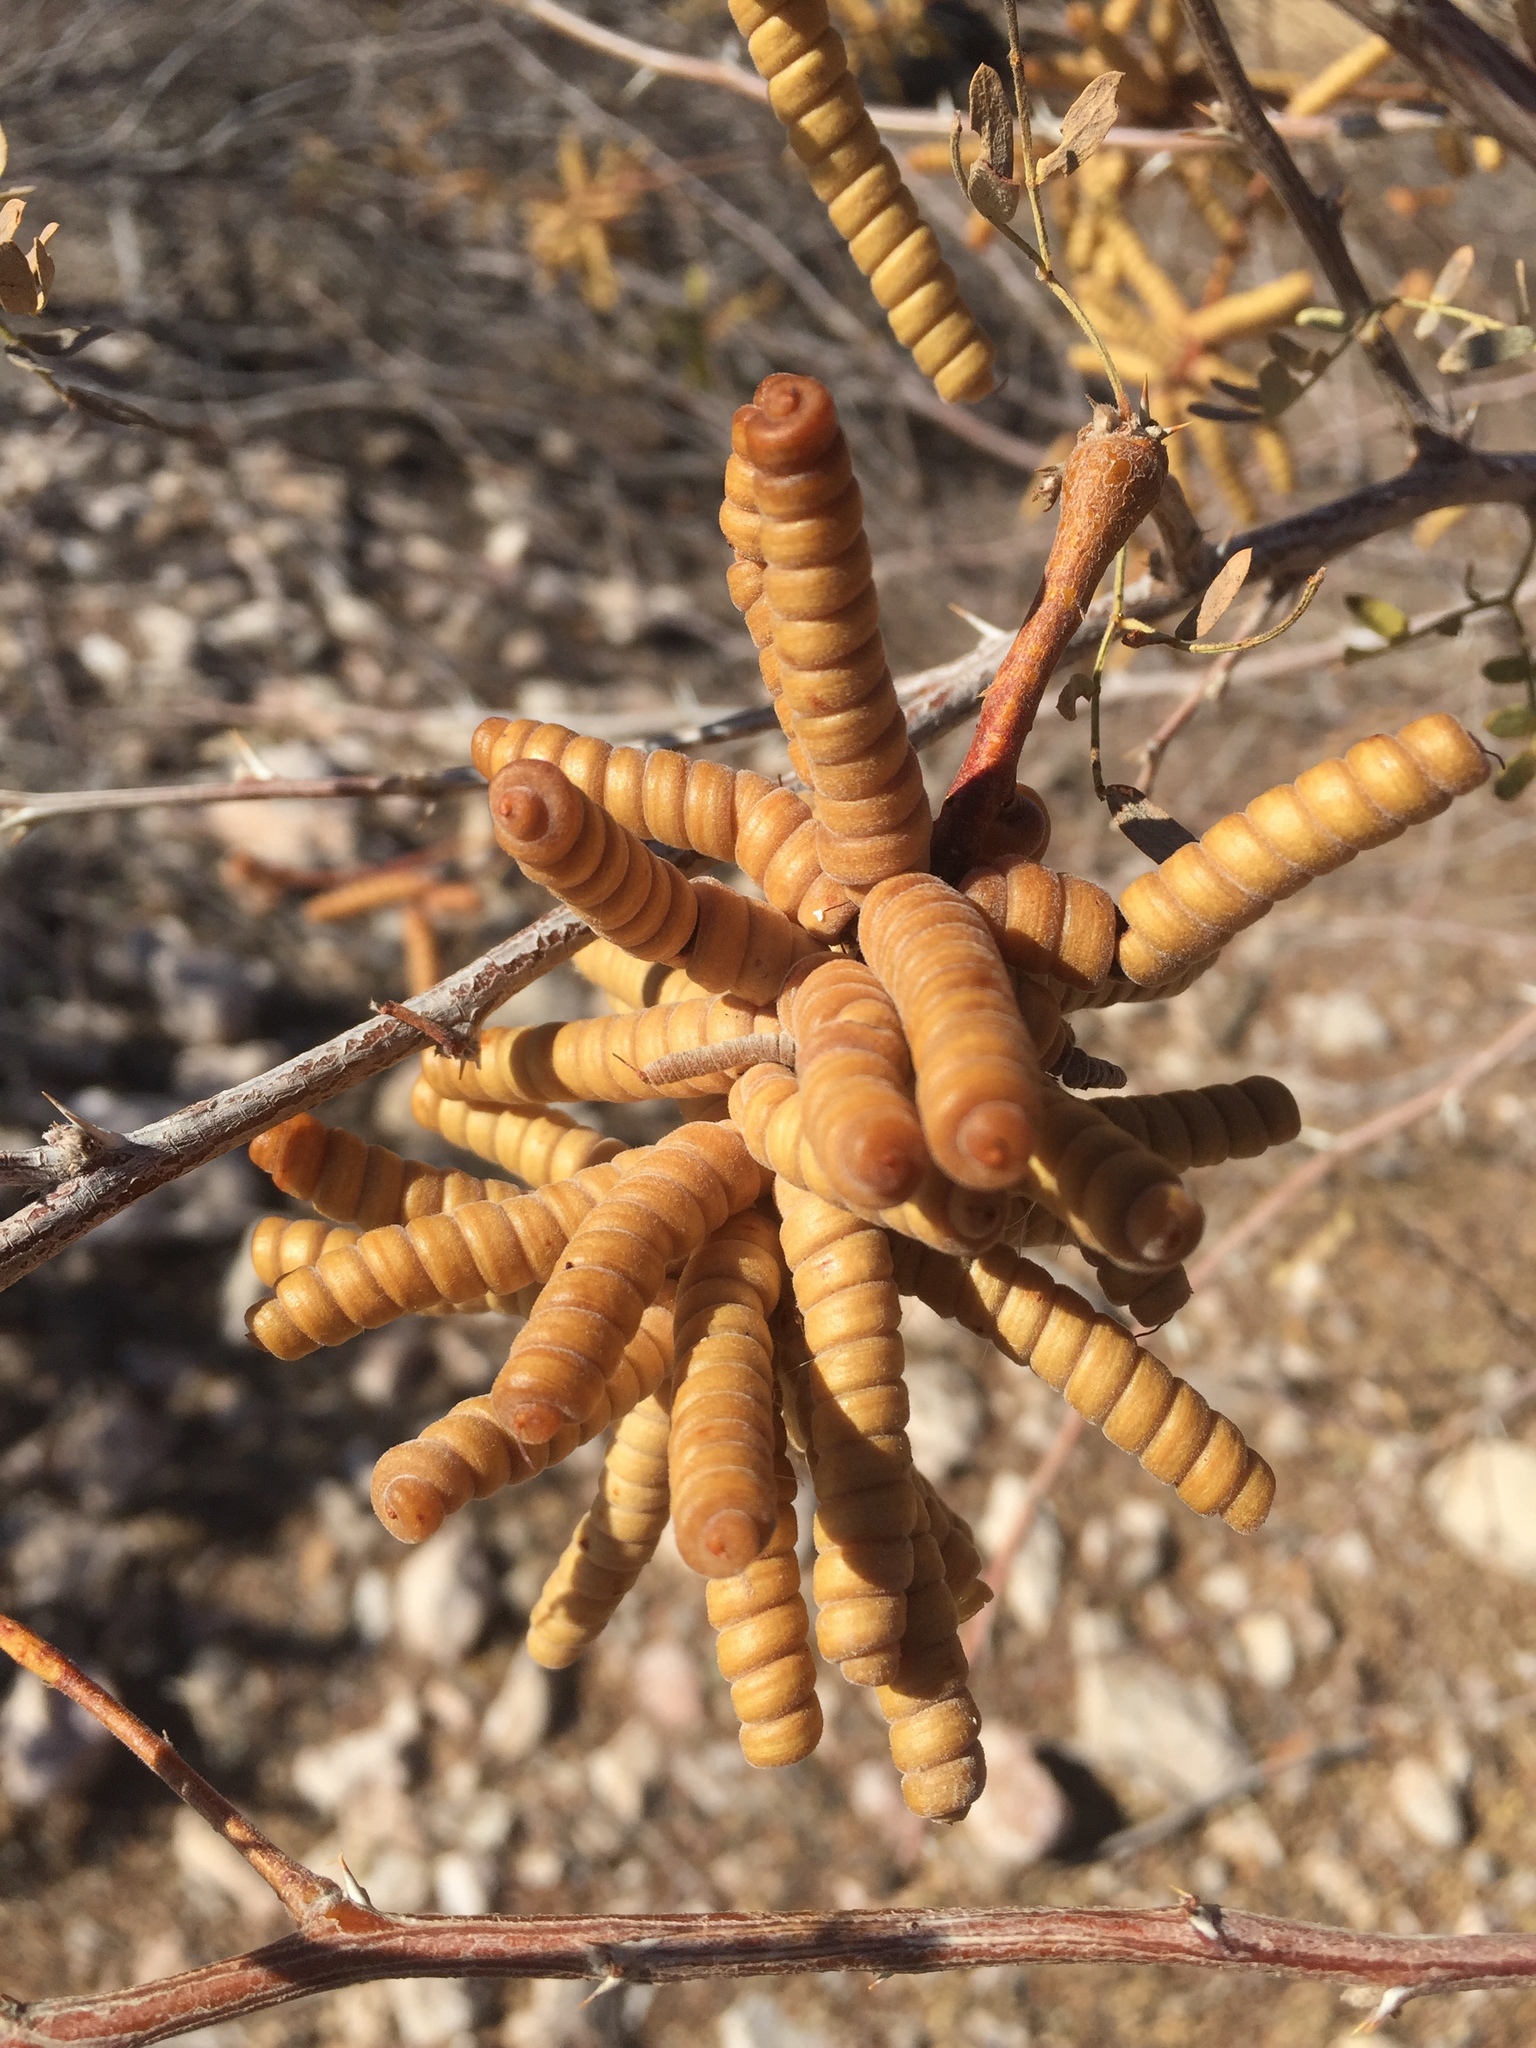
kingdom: Plantae
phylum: Tracheophyta
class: Magnoliopsida
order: Fabales
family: Fabaceae
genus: Prosopis
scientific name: Prosopis pubescens
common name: Screw-bean
